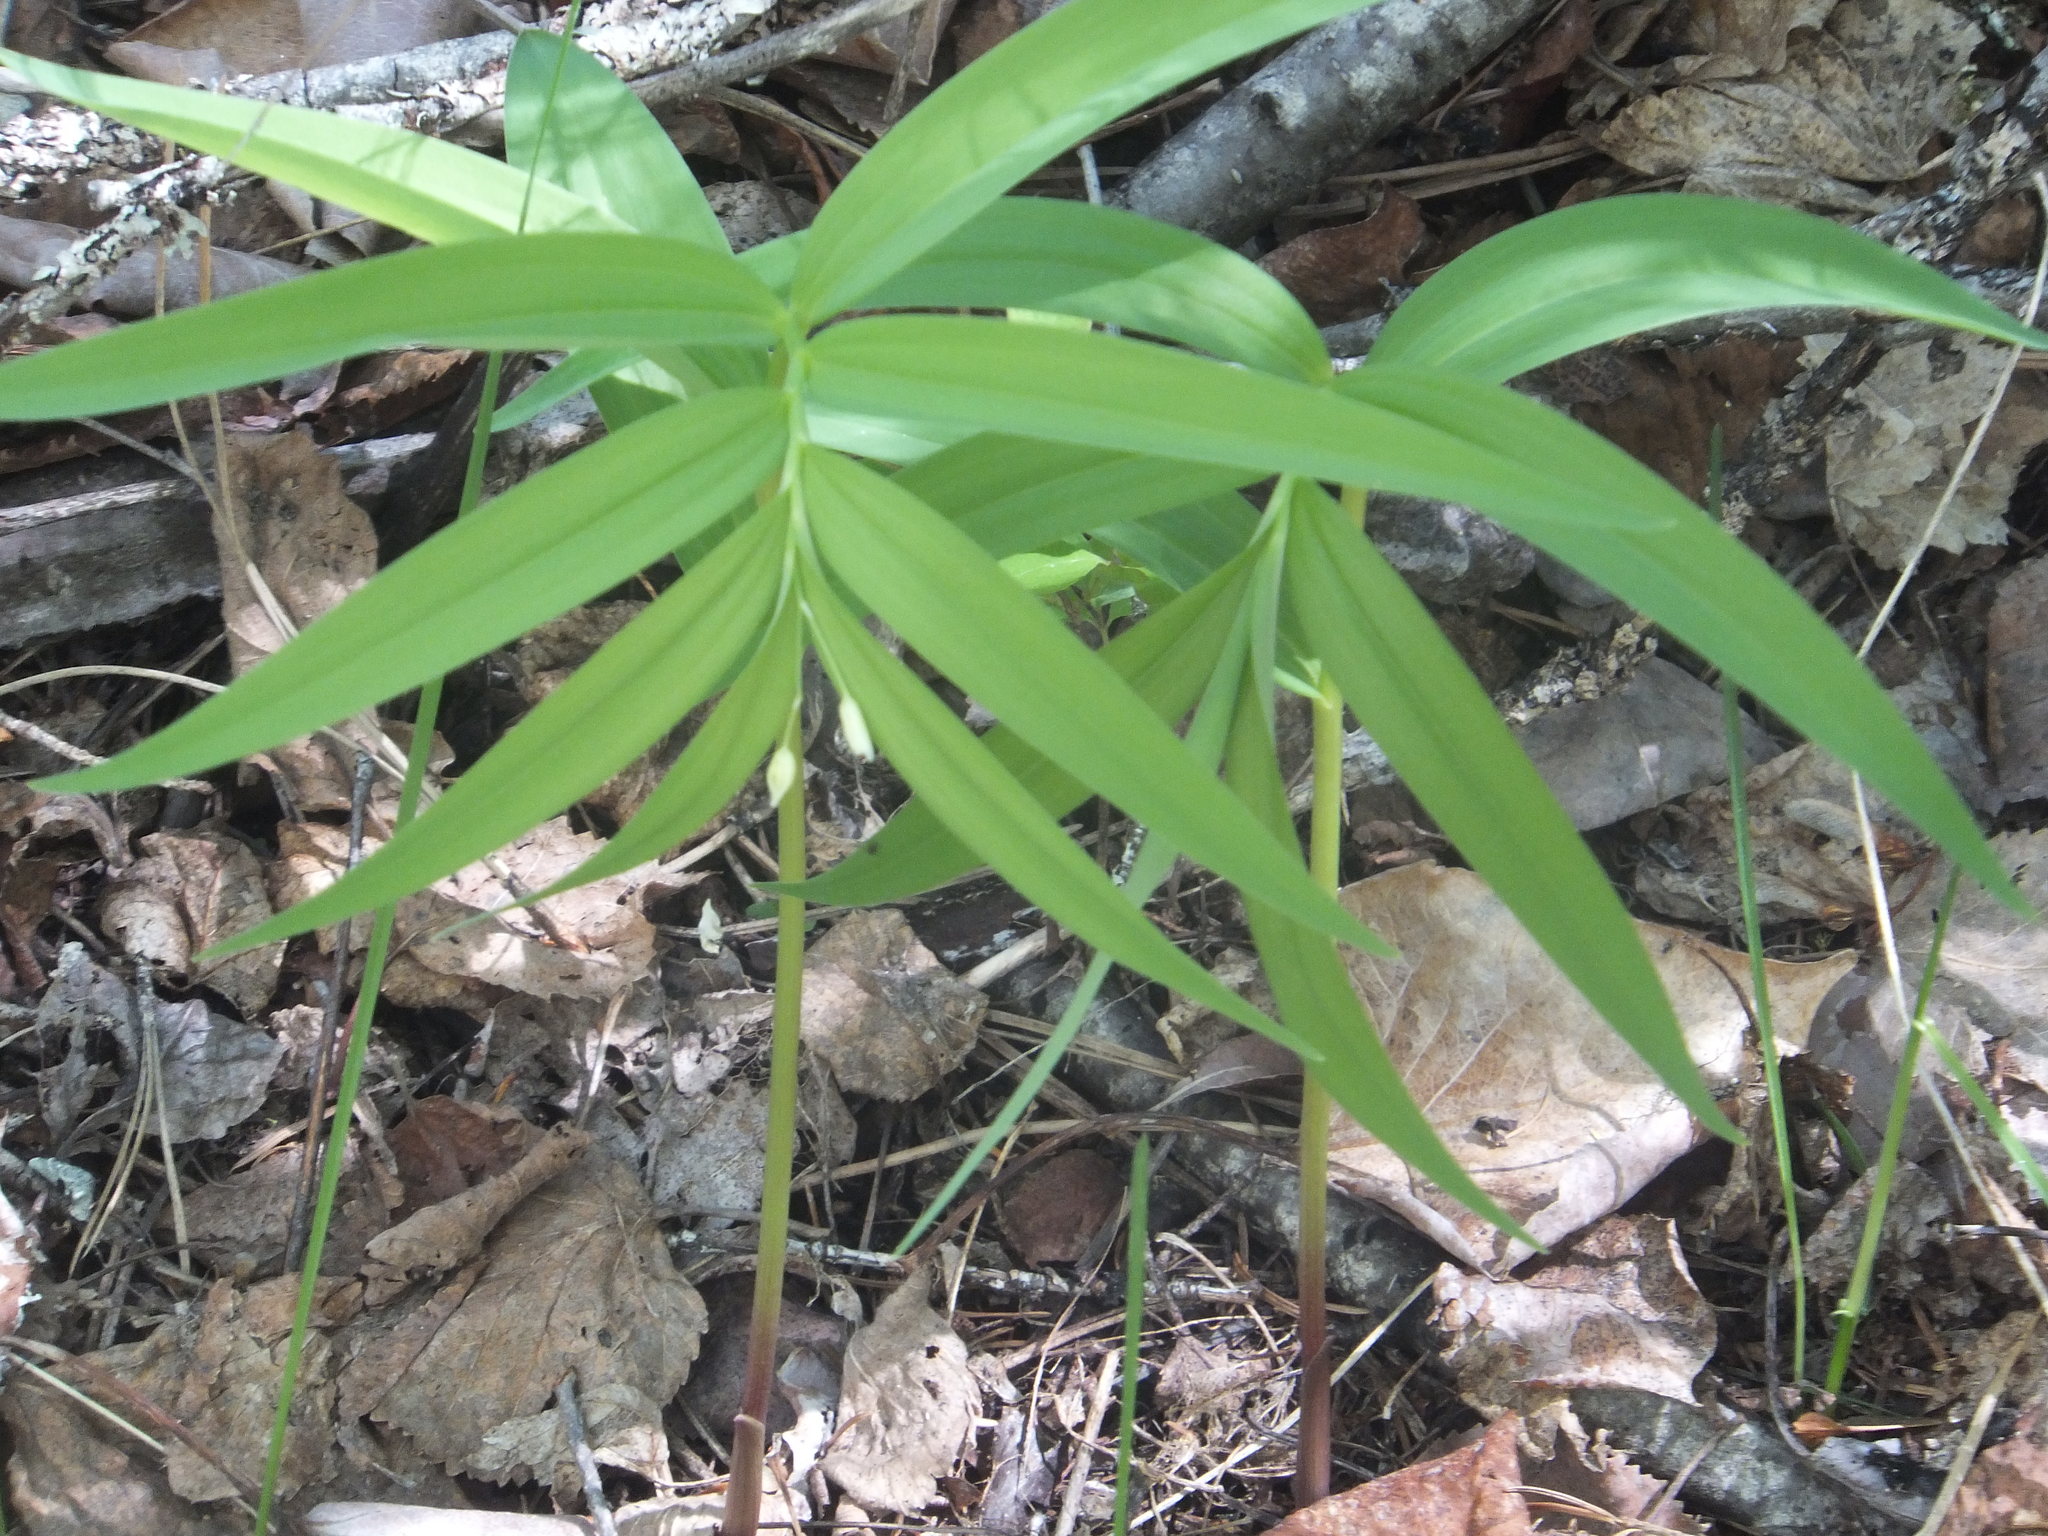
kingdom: Plantae
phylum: Tracheophyta
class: Liliopsida
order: Asparagales
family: Asparagaceae
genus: Maianthemum
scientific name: Maianthemum stellatum
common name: Little false solomon's seal
